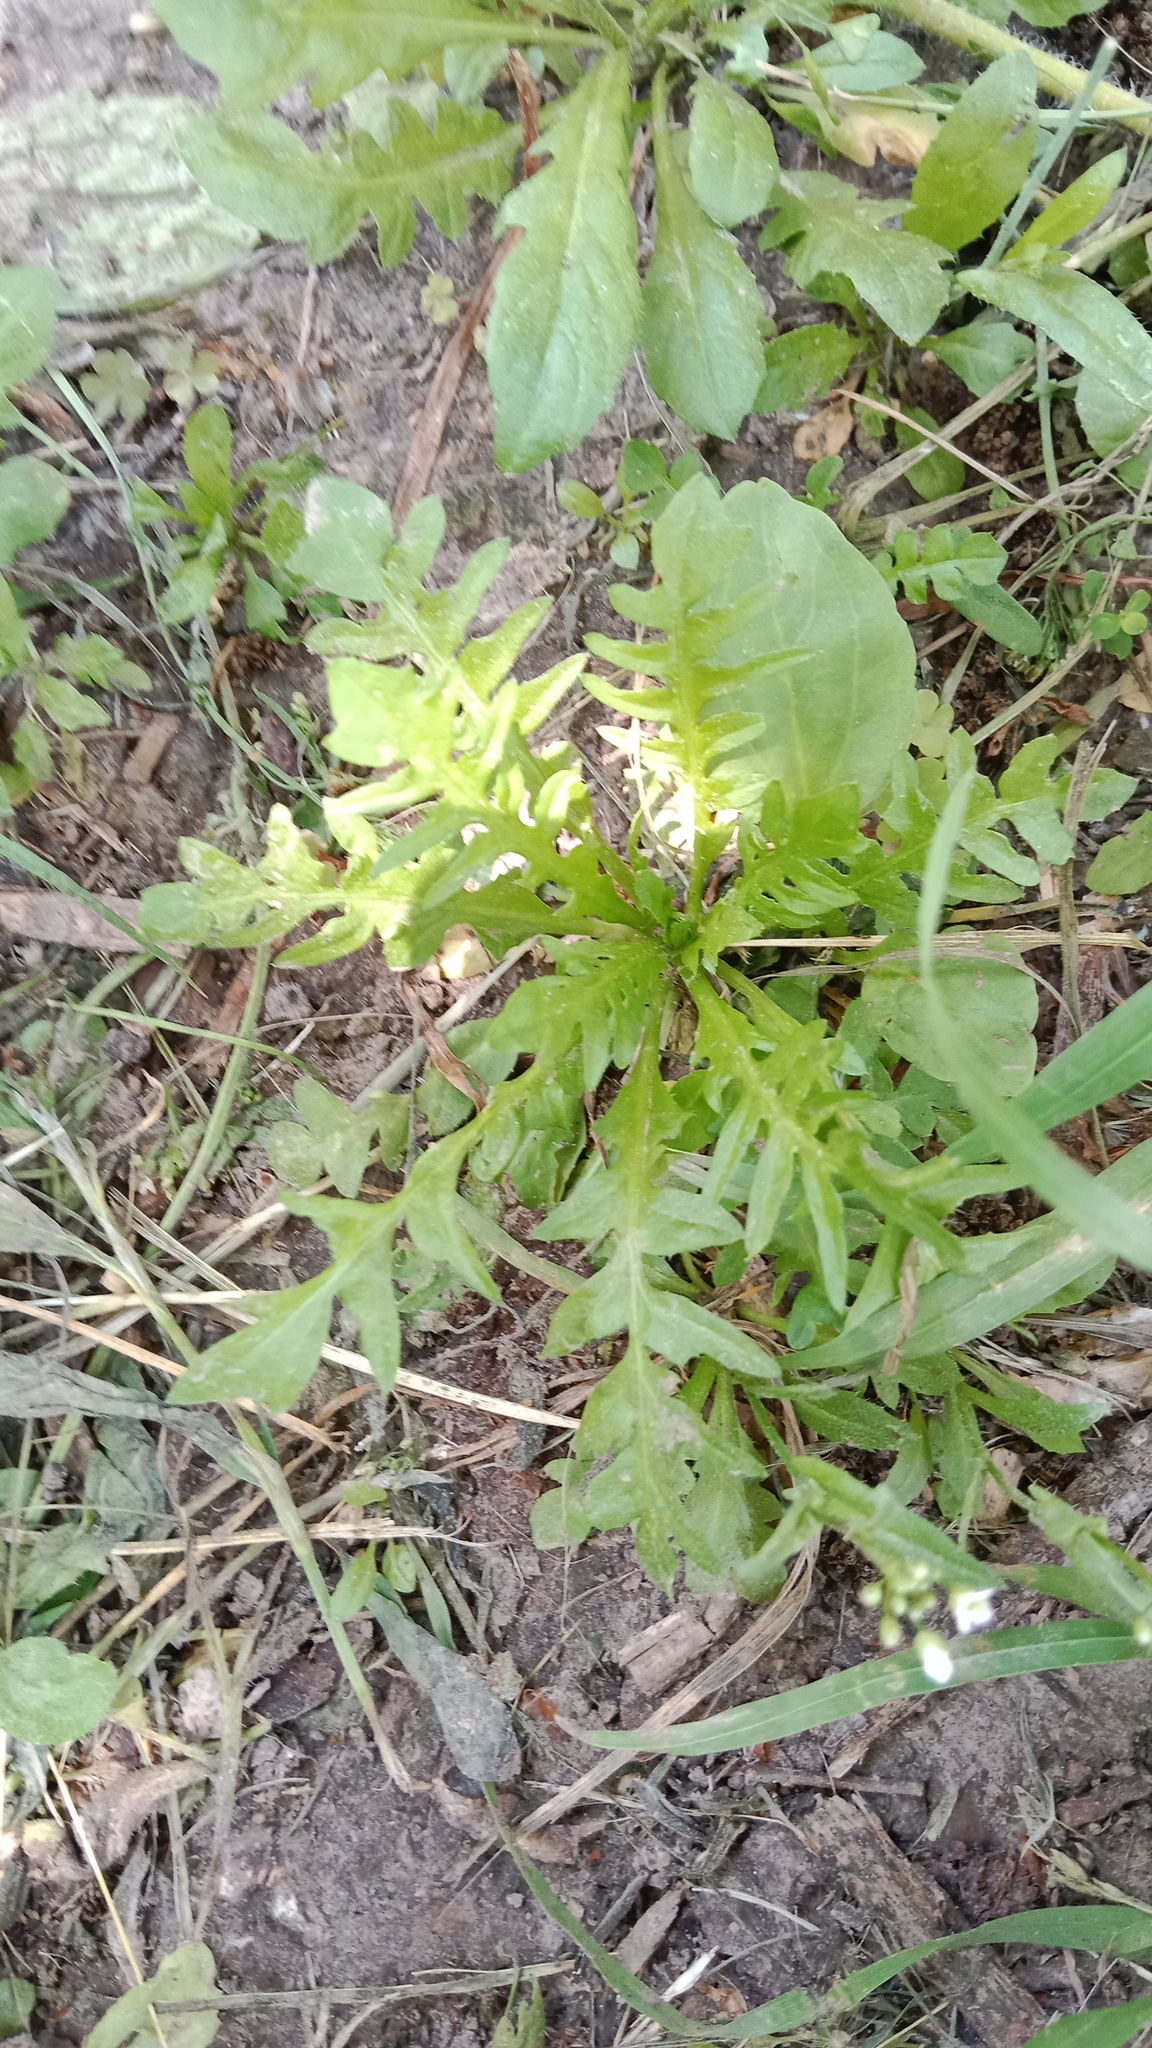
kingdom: Plantae
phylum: Tracheophyta
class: Magnoliopsida
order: Brassicales
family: Brassicaceae
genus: Capsella
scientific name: Capsella bursa-pastoris
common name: Shepherd's purse
